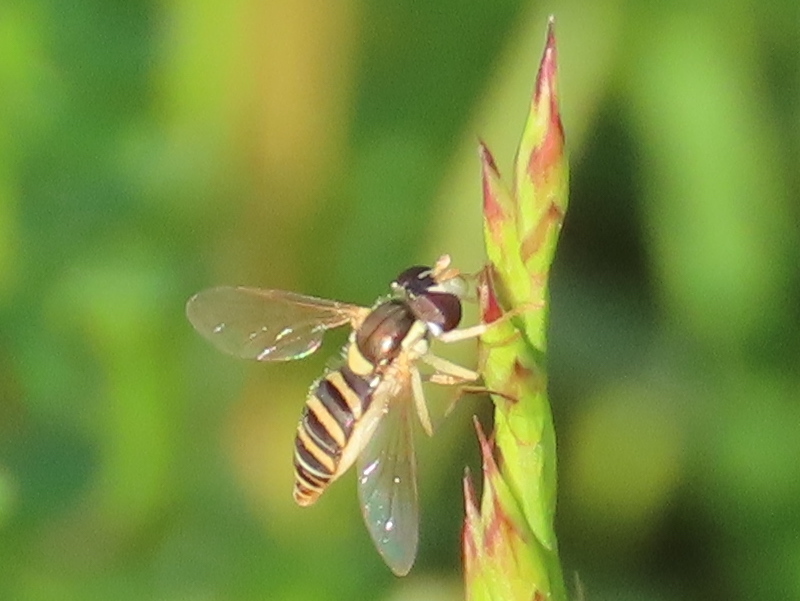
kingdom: Animalia
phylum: Arthropoda
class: Insecta
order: Diptera
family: Syrphidae
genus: Sphaerophoria
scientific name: Sphaerophoria contigua
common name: Tufted globetail
